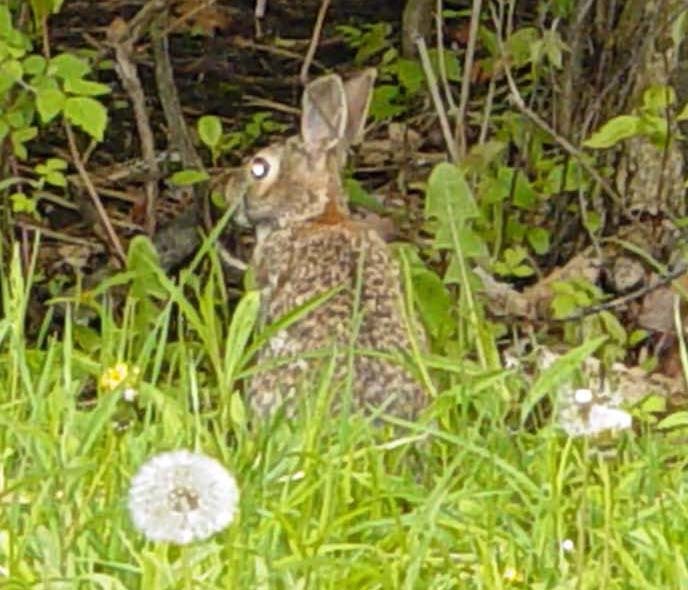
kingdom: Animalia
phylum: Chordata
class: Mammalia
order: Lagomorpha
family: Leporidae
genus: Sylvilagus
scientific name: Sylvilagus floridanus
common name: Eastern cottontail
